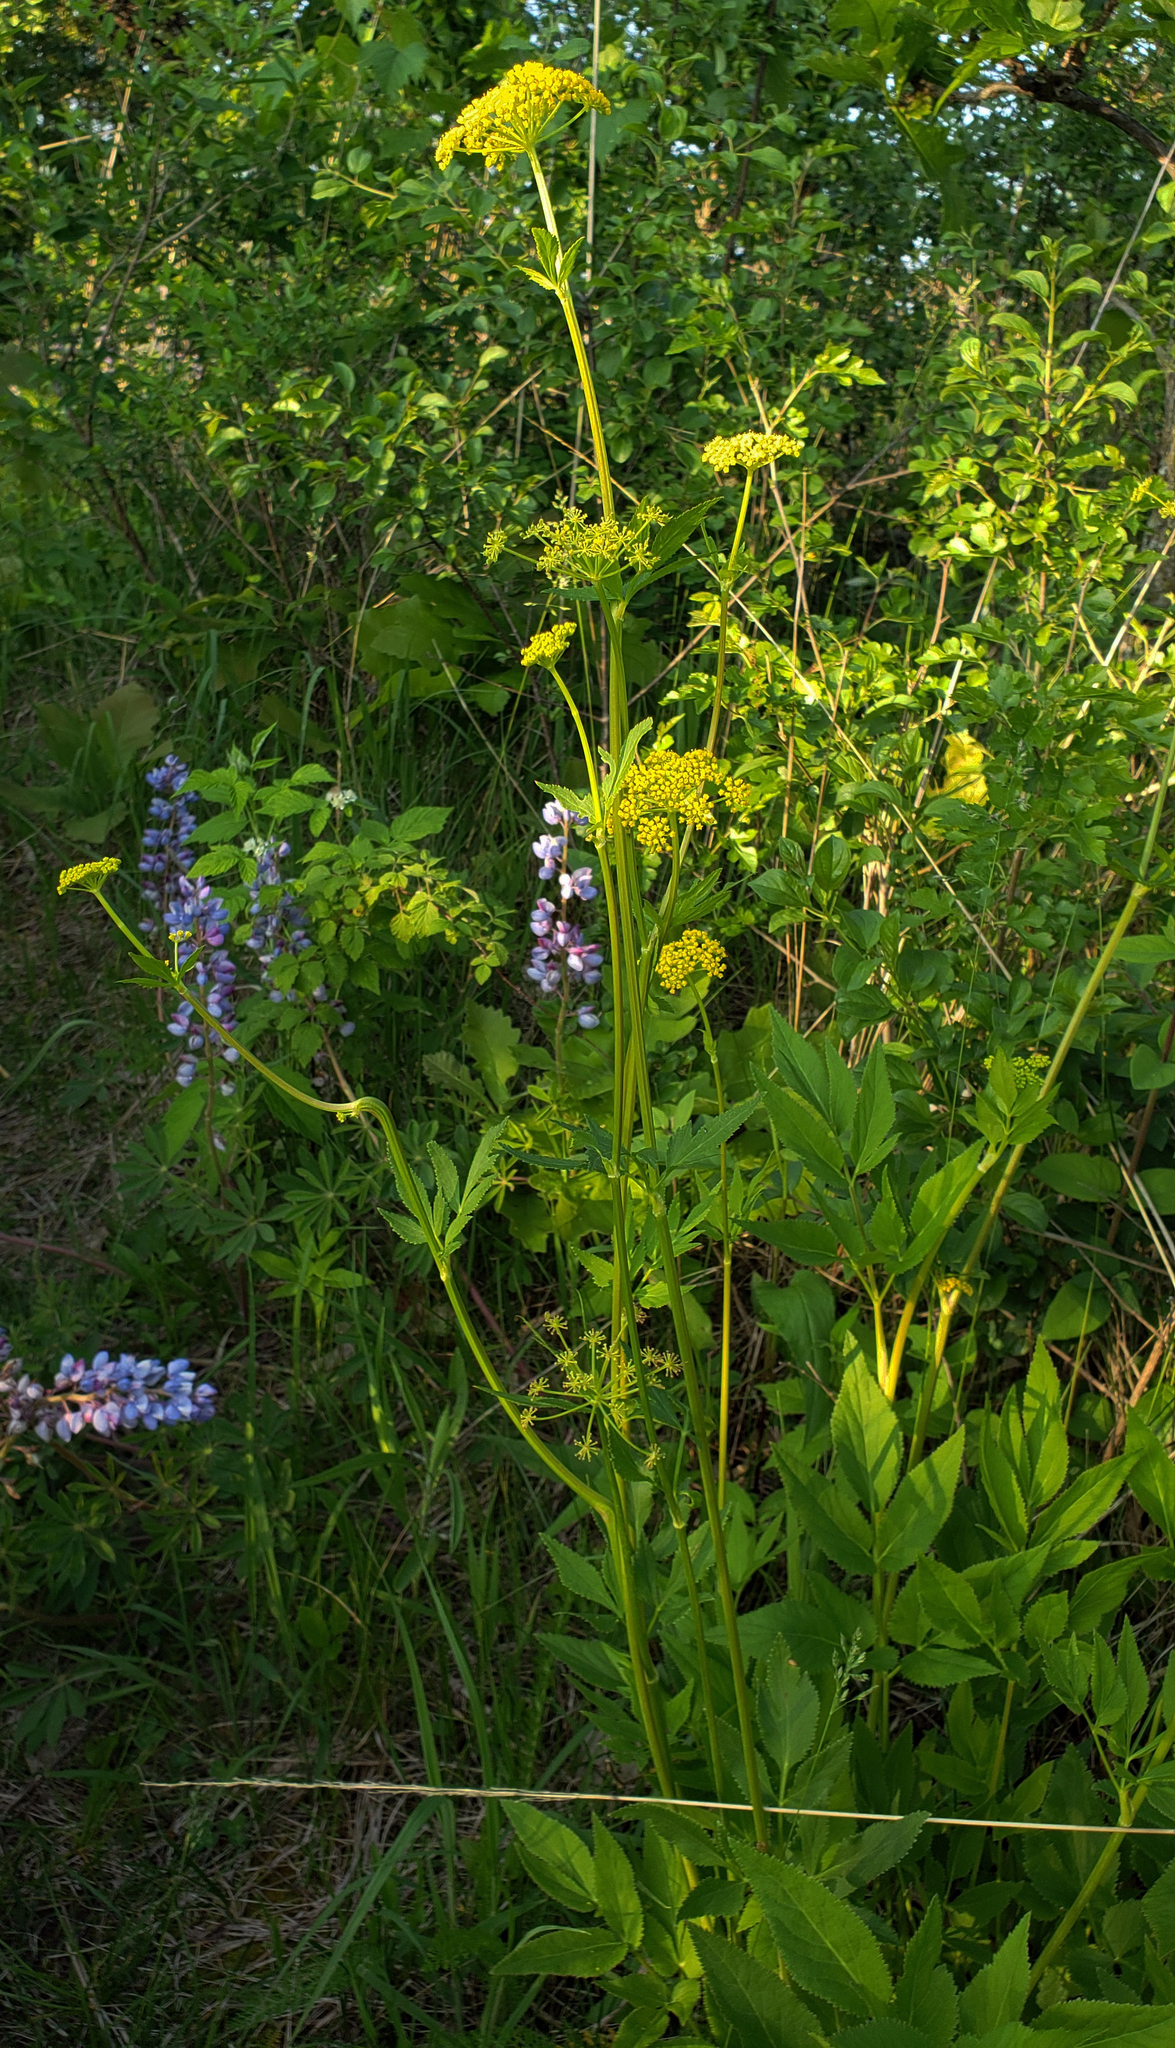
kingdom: Plantae
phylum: Tracheophyta
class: Magnoliopsida
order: Apiales
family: Apiaceae
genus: Zizia
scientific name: Zizia aurea
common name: Golden alexanders
